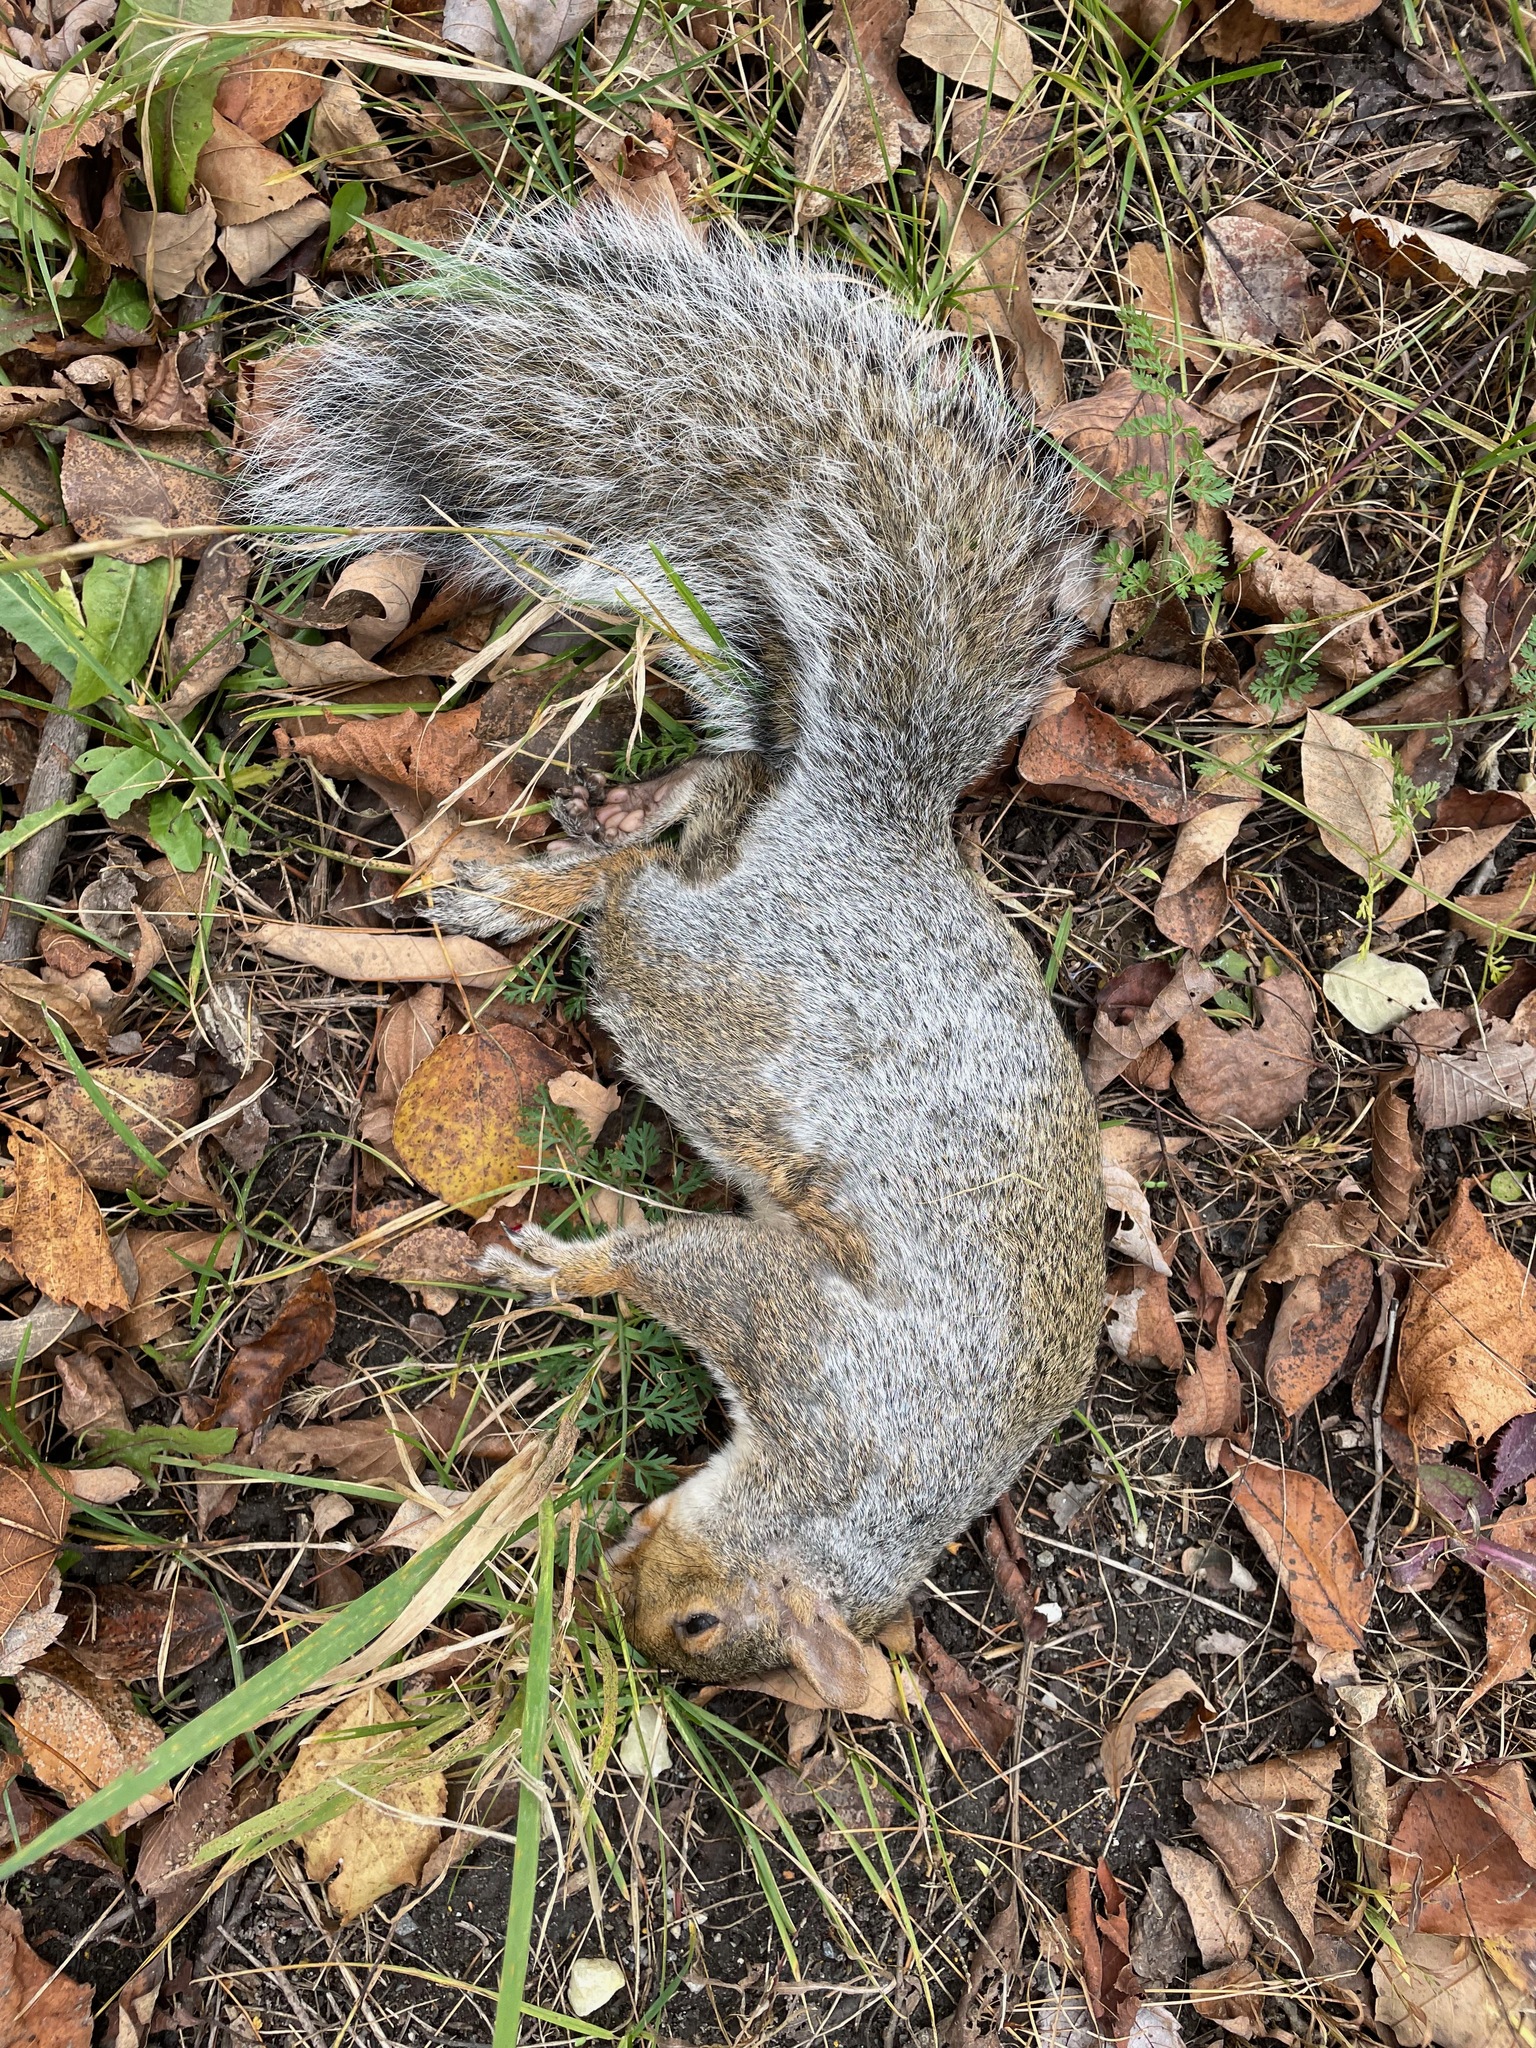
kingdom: Animalia
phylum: Chordata
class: Mammalia
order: Rodentia
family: Sciuridae
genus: Sciurus
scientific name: Sciurus carolinensis
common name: Eastern gray squirrel
